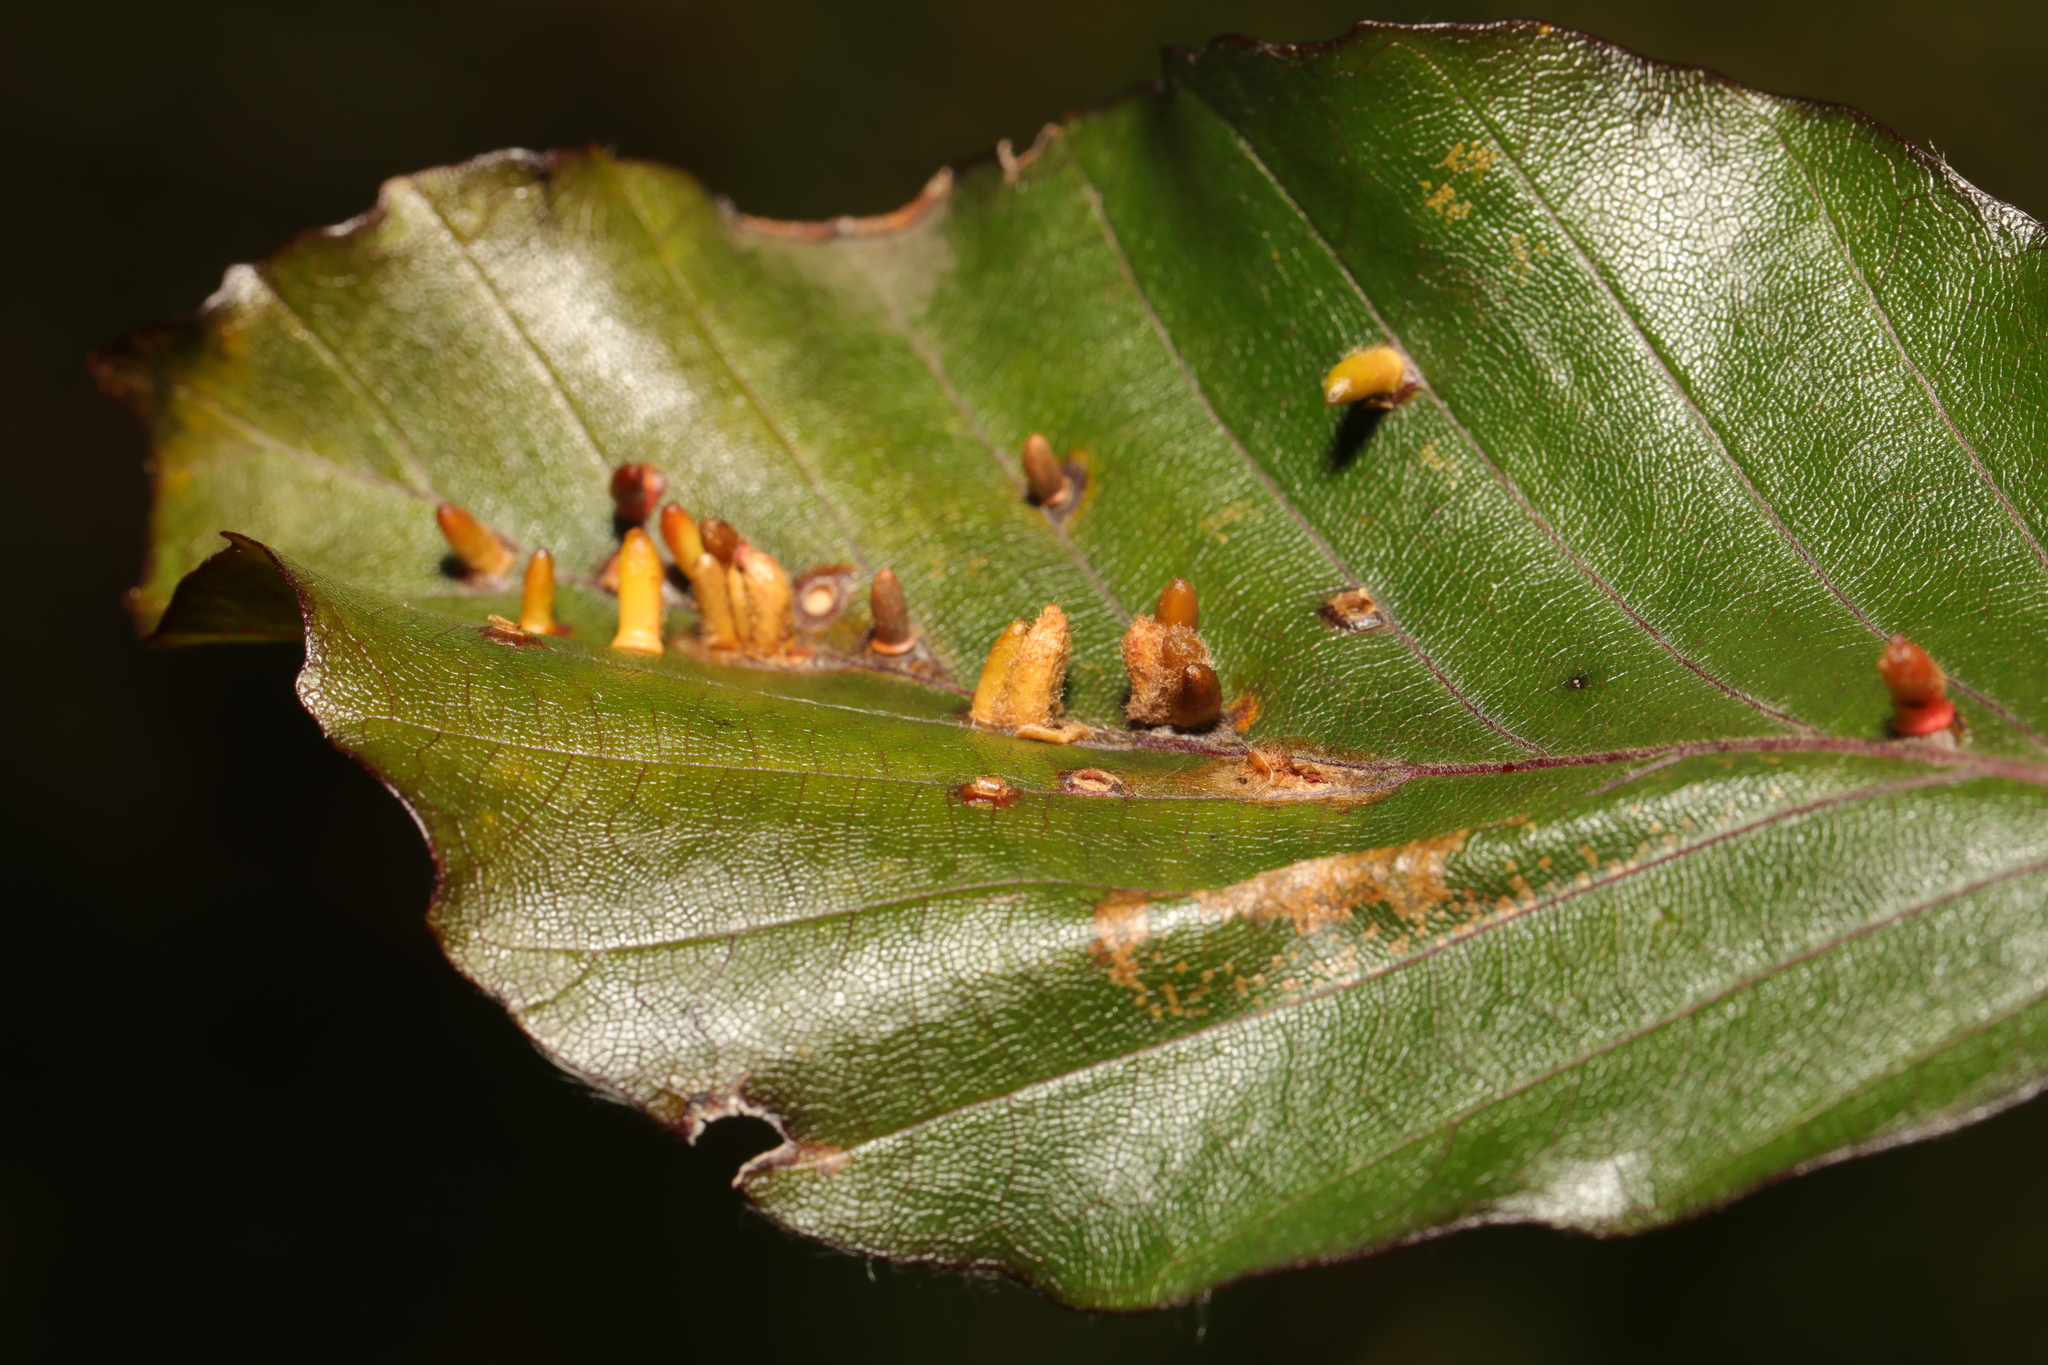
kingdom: Animalia
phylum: Arthropoda
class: Insecta
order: Diptera
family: Cecidomyiidae
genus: Hartigiola
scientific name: Hartigiola annulipes
